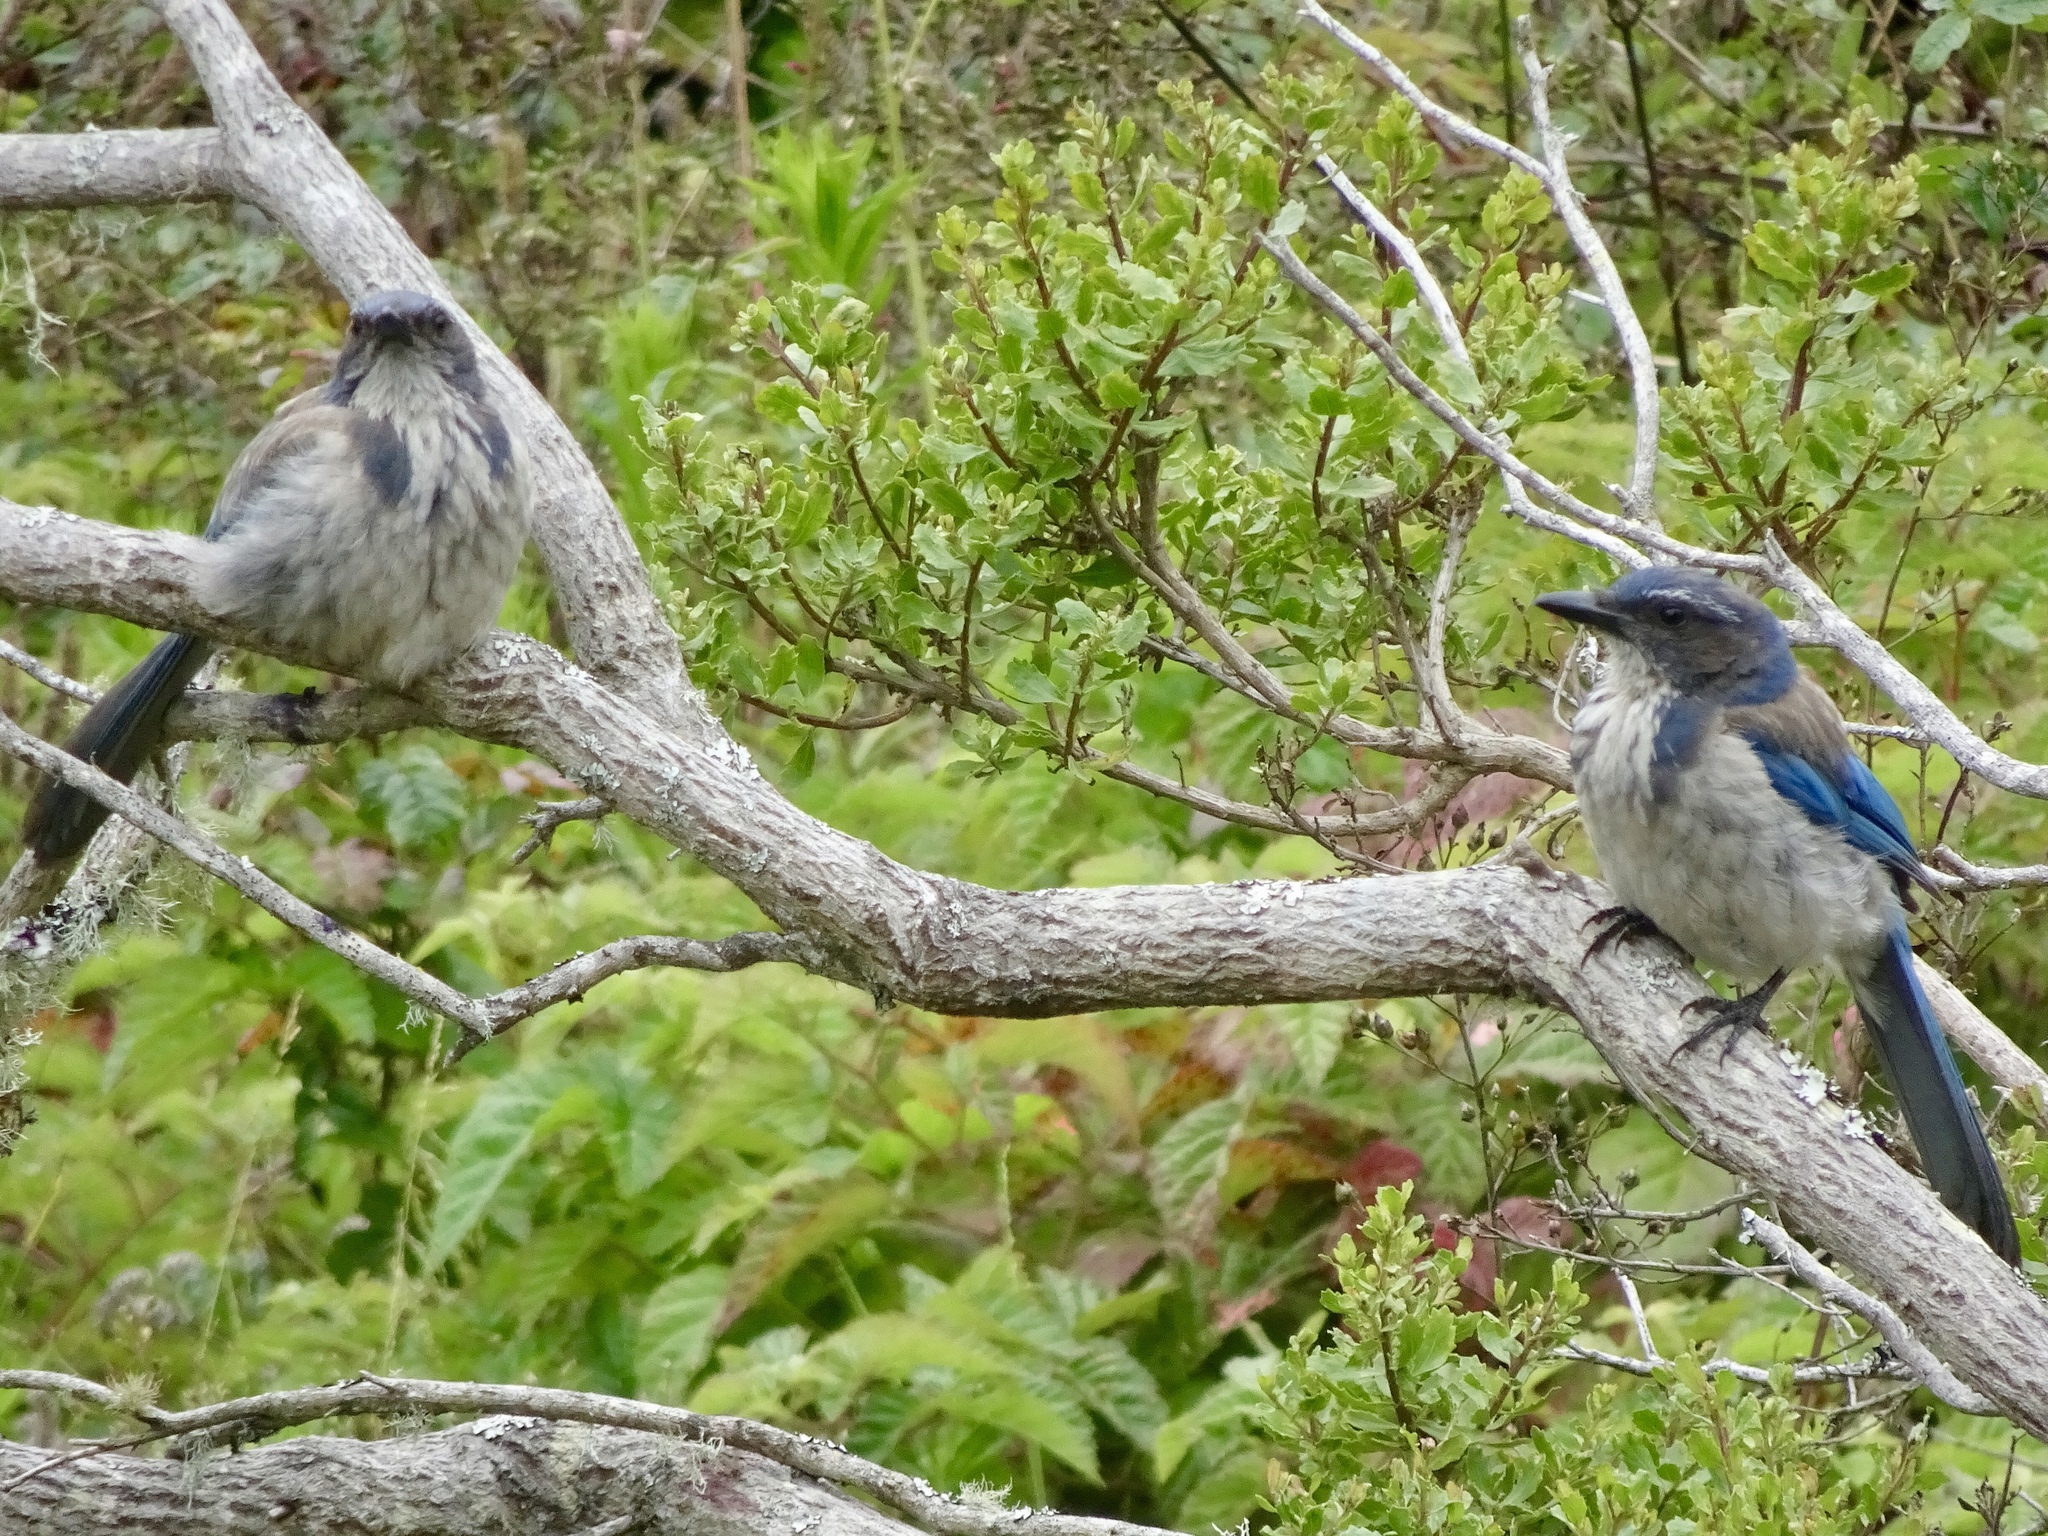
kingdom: Animalia
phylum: Chordata
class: Aves
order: Passeriformes
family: Corvidae
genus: Aphelocoma
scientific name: Aphelocoma californica
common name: California scrub-jay
